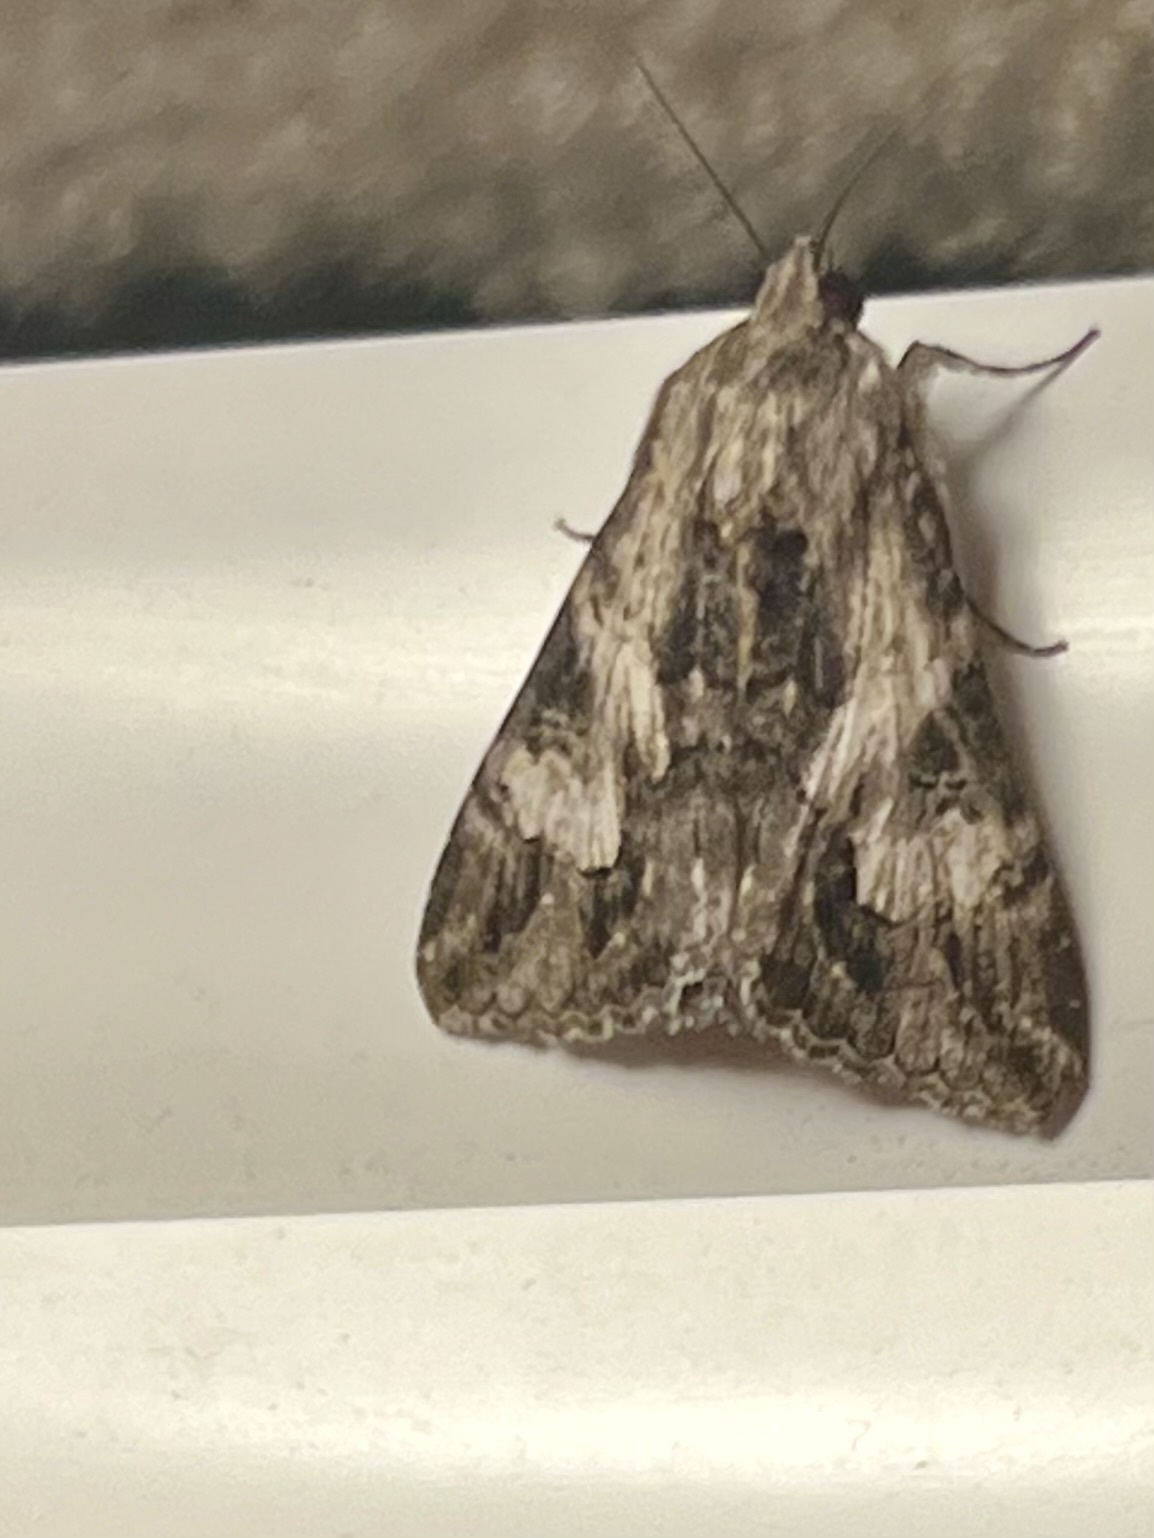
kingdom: Animalia
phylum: Arthropoda
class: Insecta
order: Lepidoptera
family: Erebidae
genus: Melipotis
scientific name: Melipotis jucunda
